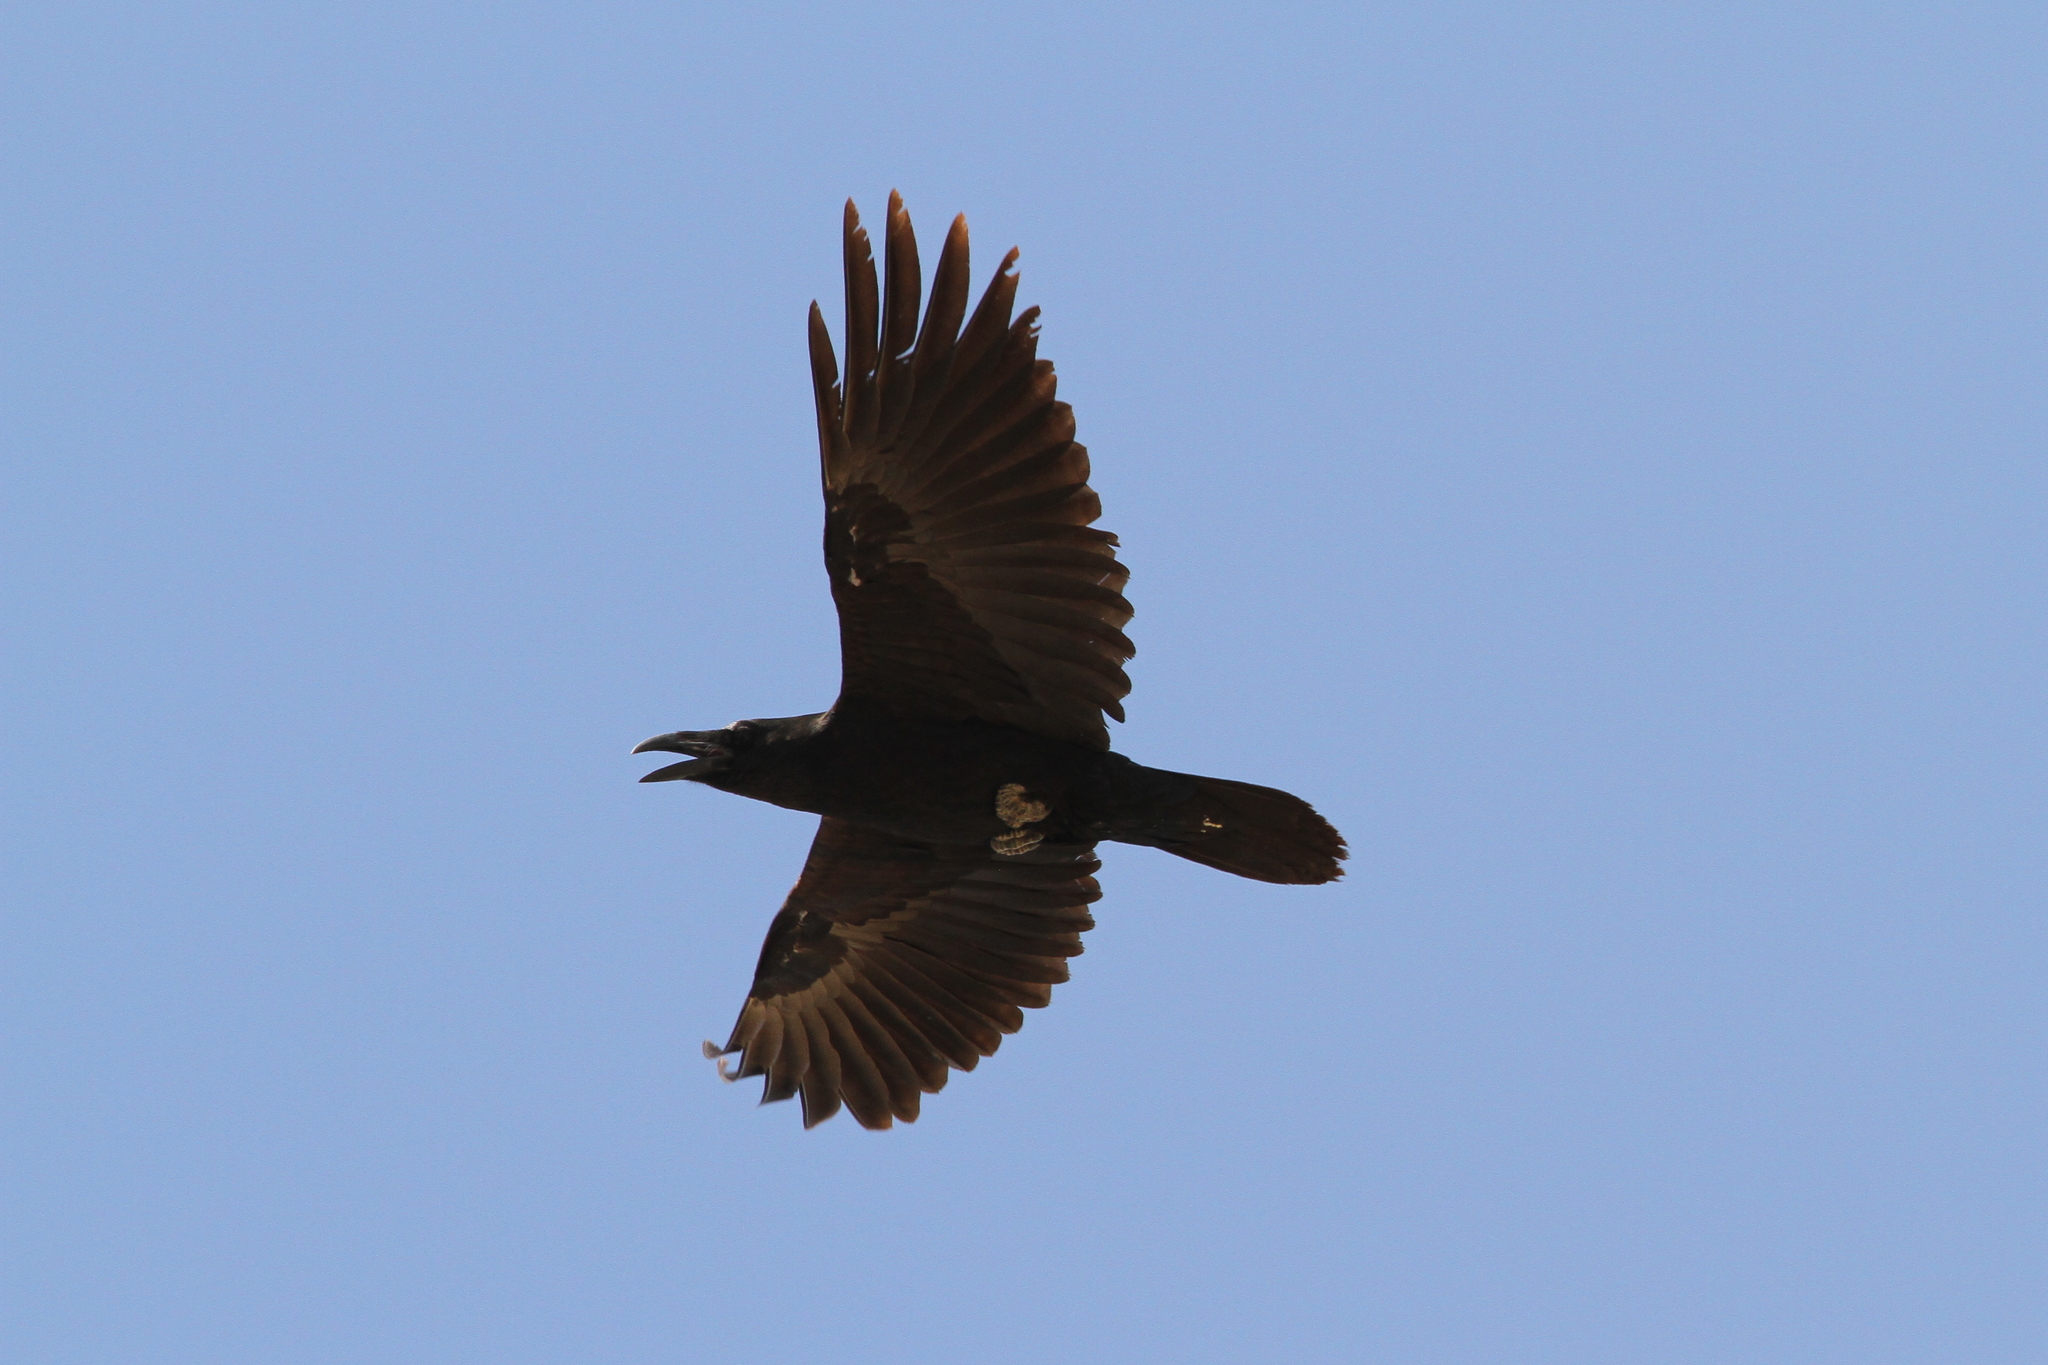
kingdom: Animalia
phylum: Chordata
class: Aves
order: Passeriformes
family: Corvidae
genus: Corvus
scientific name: Corvus ruficollis
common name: Brown-necked raven
